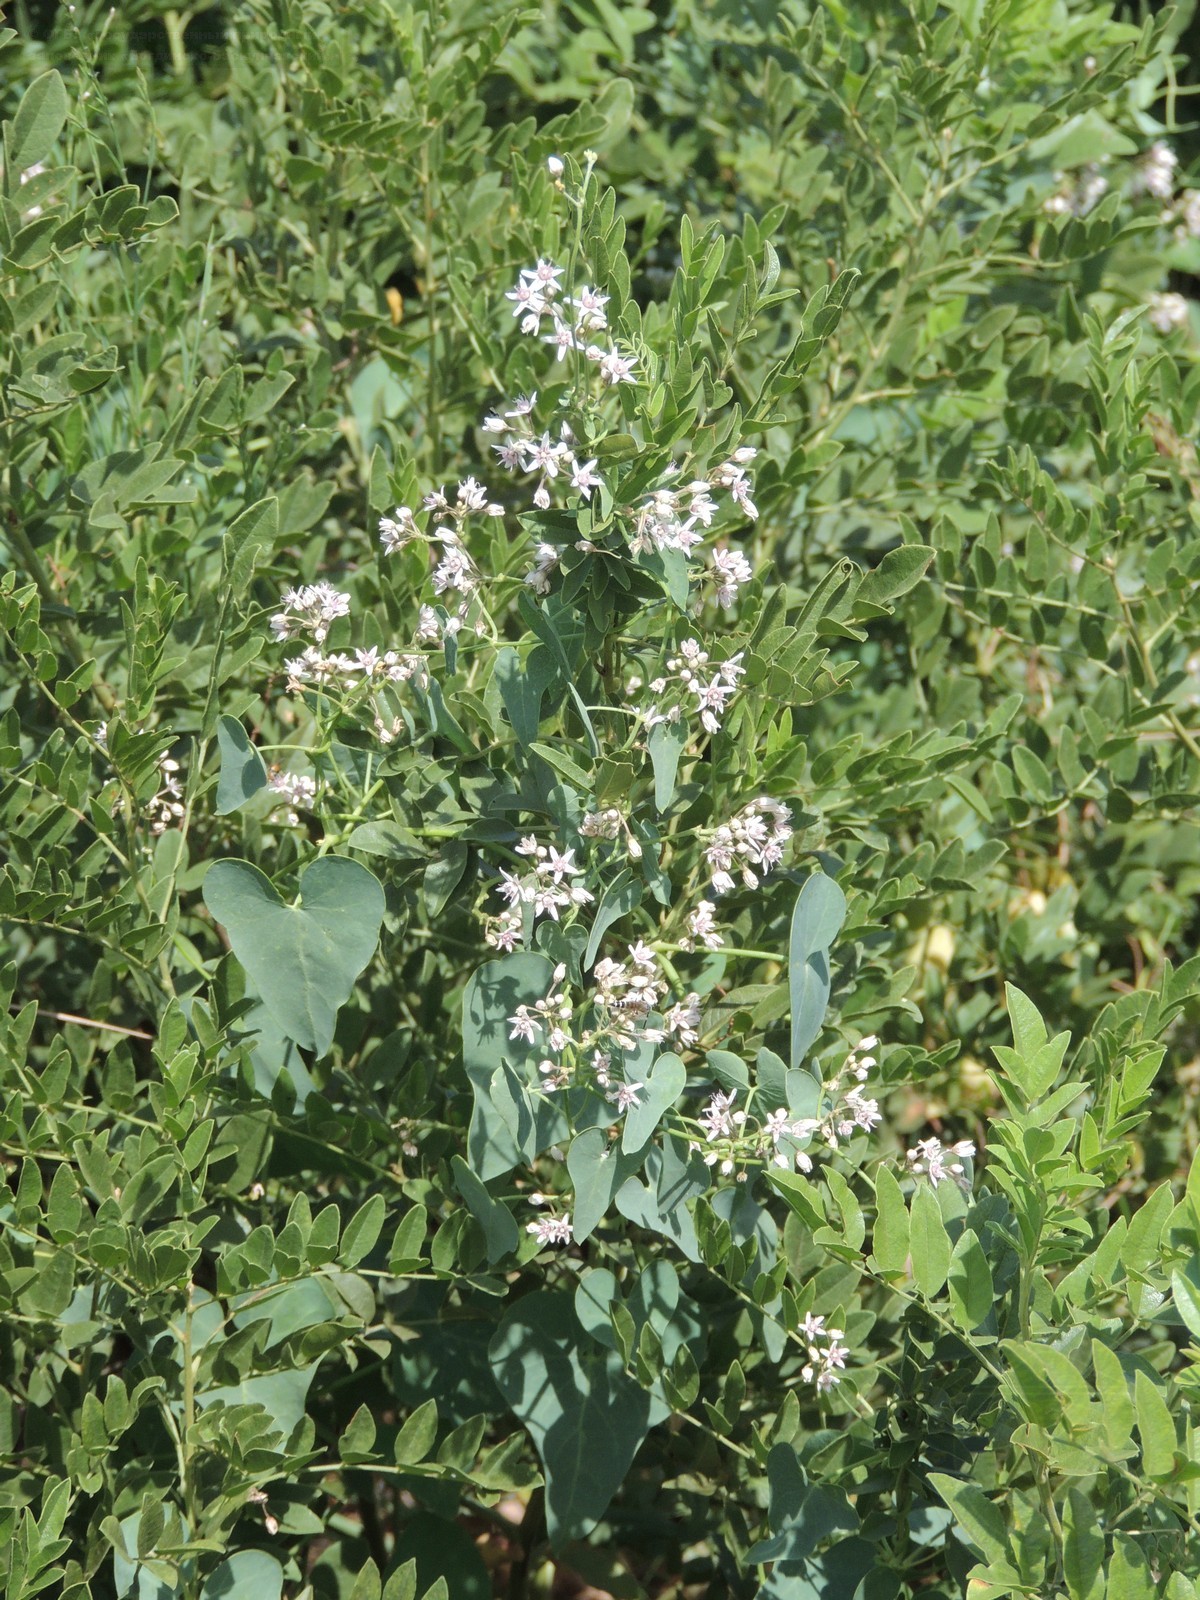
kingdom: Plantae
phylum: Tracheophyta
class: Magnoliopsida
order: Gentianales
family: Apocynaceae
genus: Cynanchum
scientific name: Cynanchum acutum
